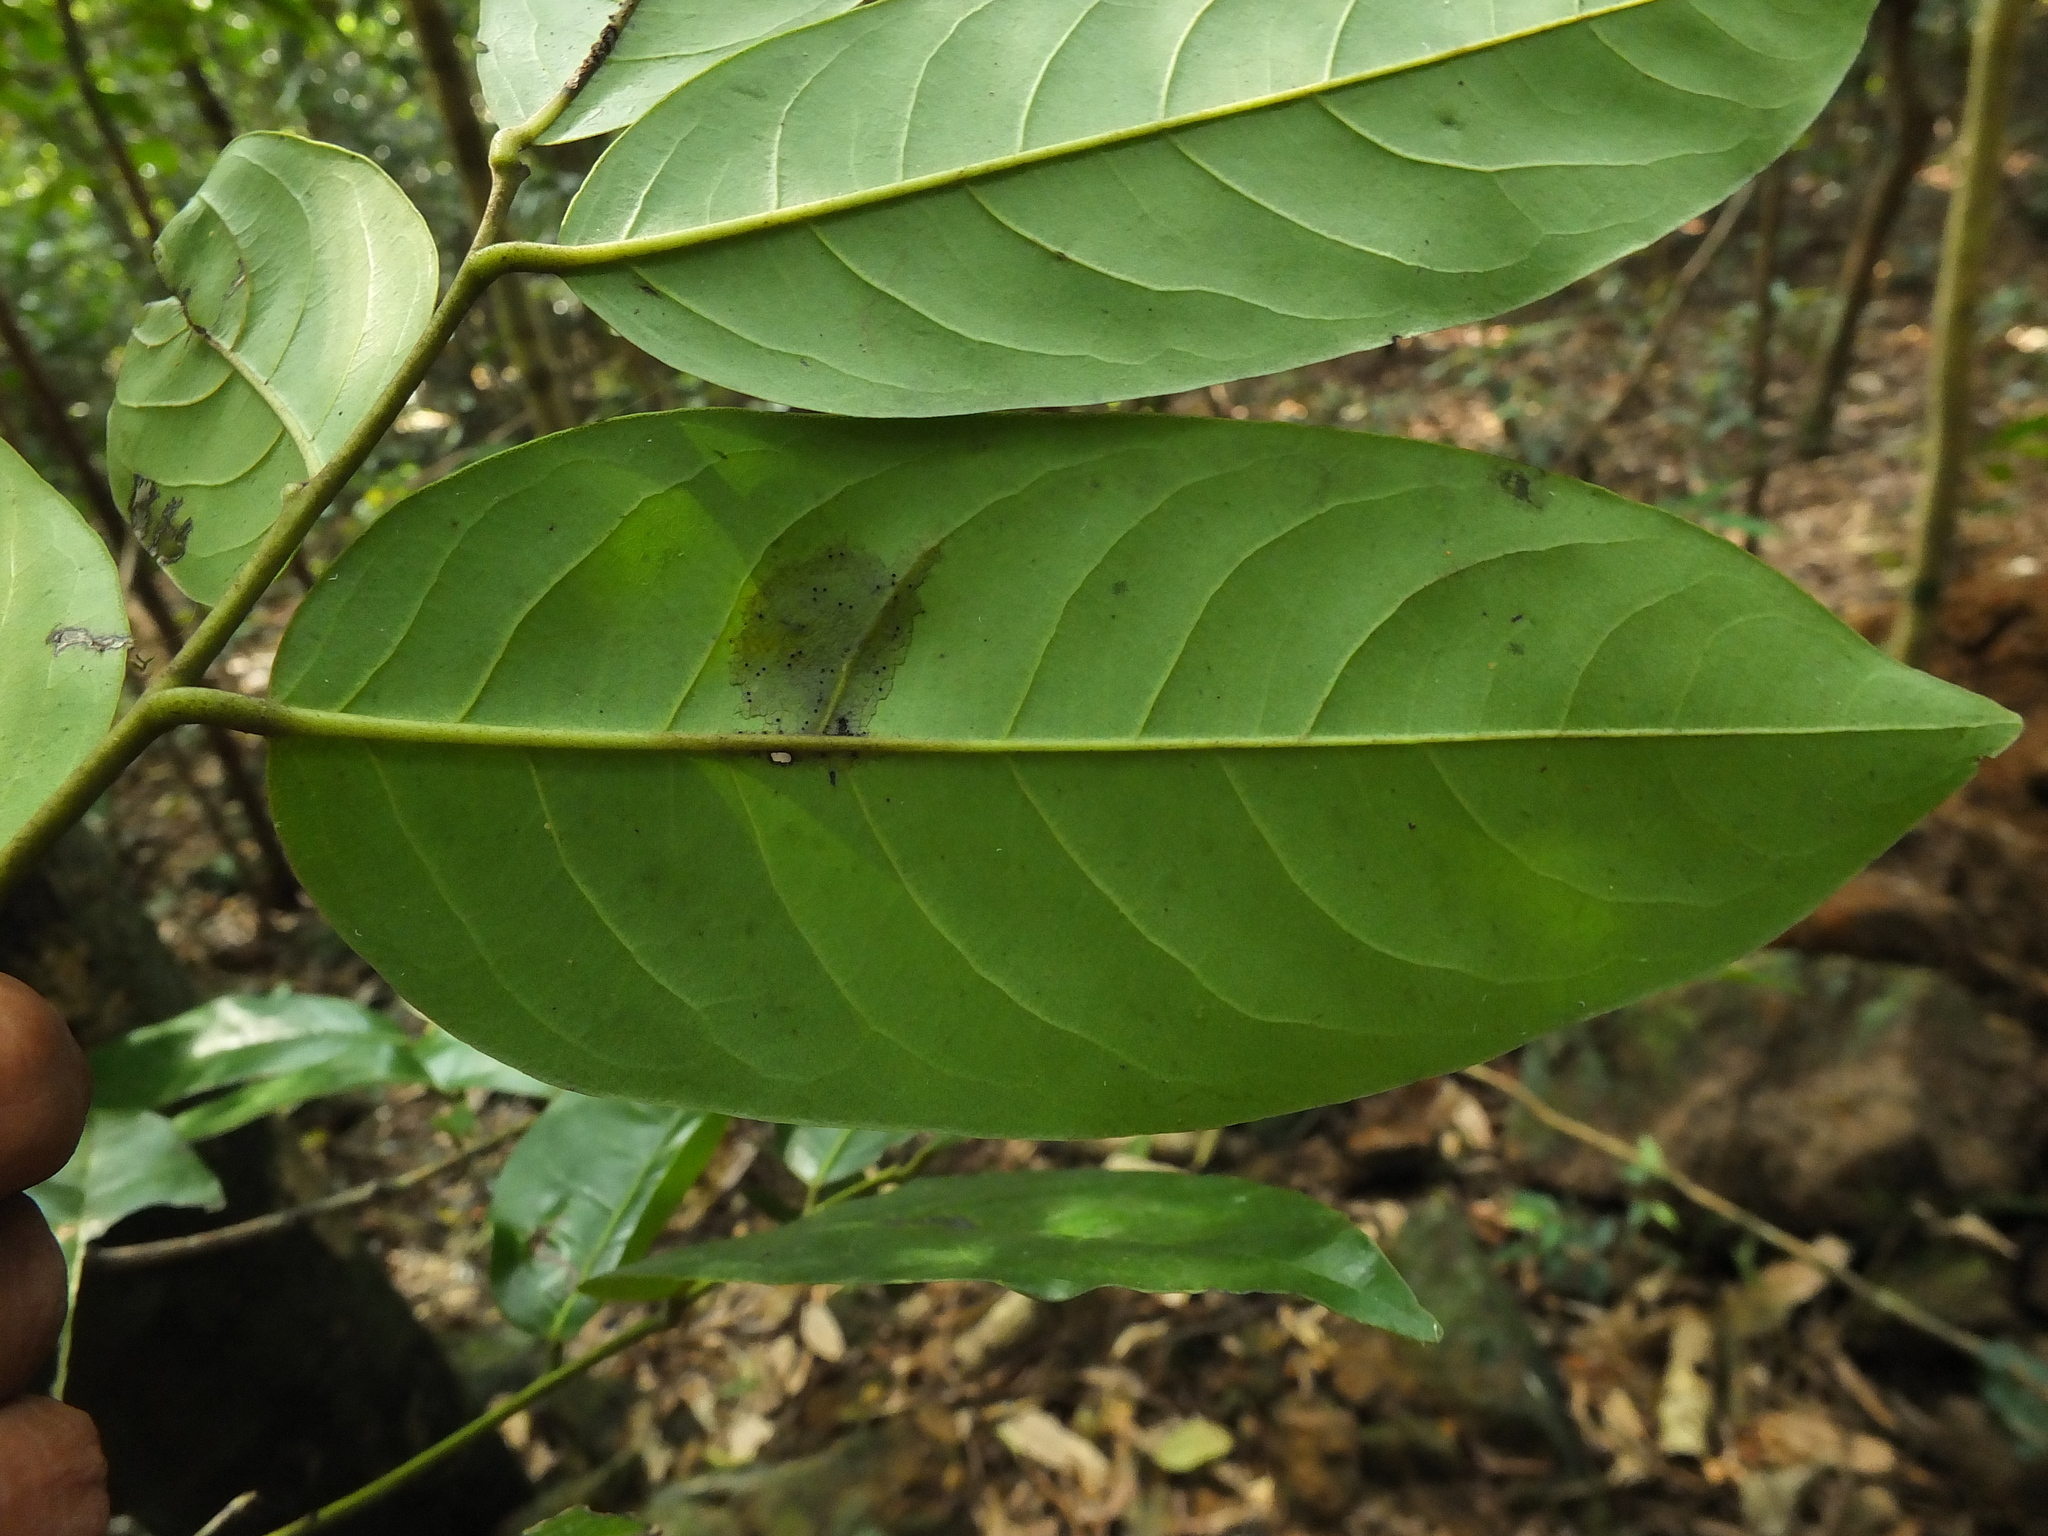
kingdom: Plantae
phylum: Tracheophyta
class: Magnoliopsida
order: Ericales
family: Ebenaceae
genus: Diospyros
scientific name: Diospyros paniculata
